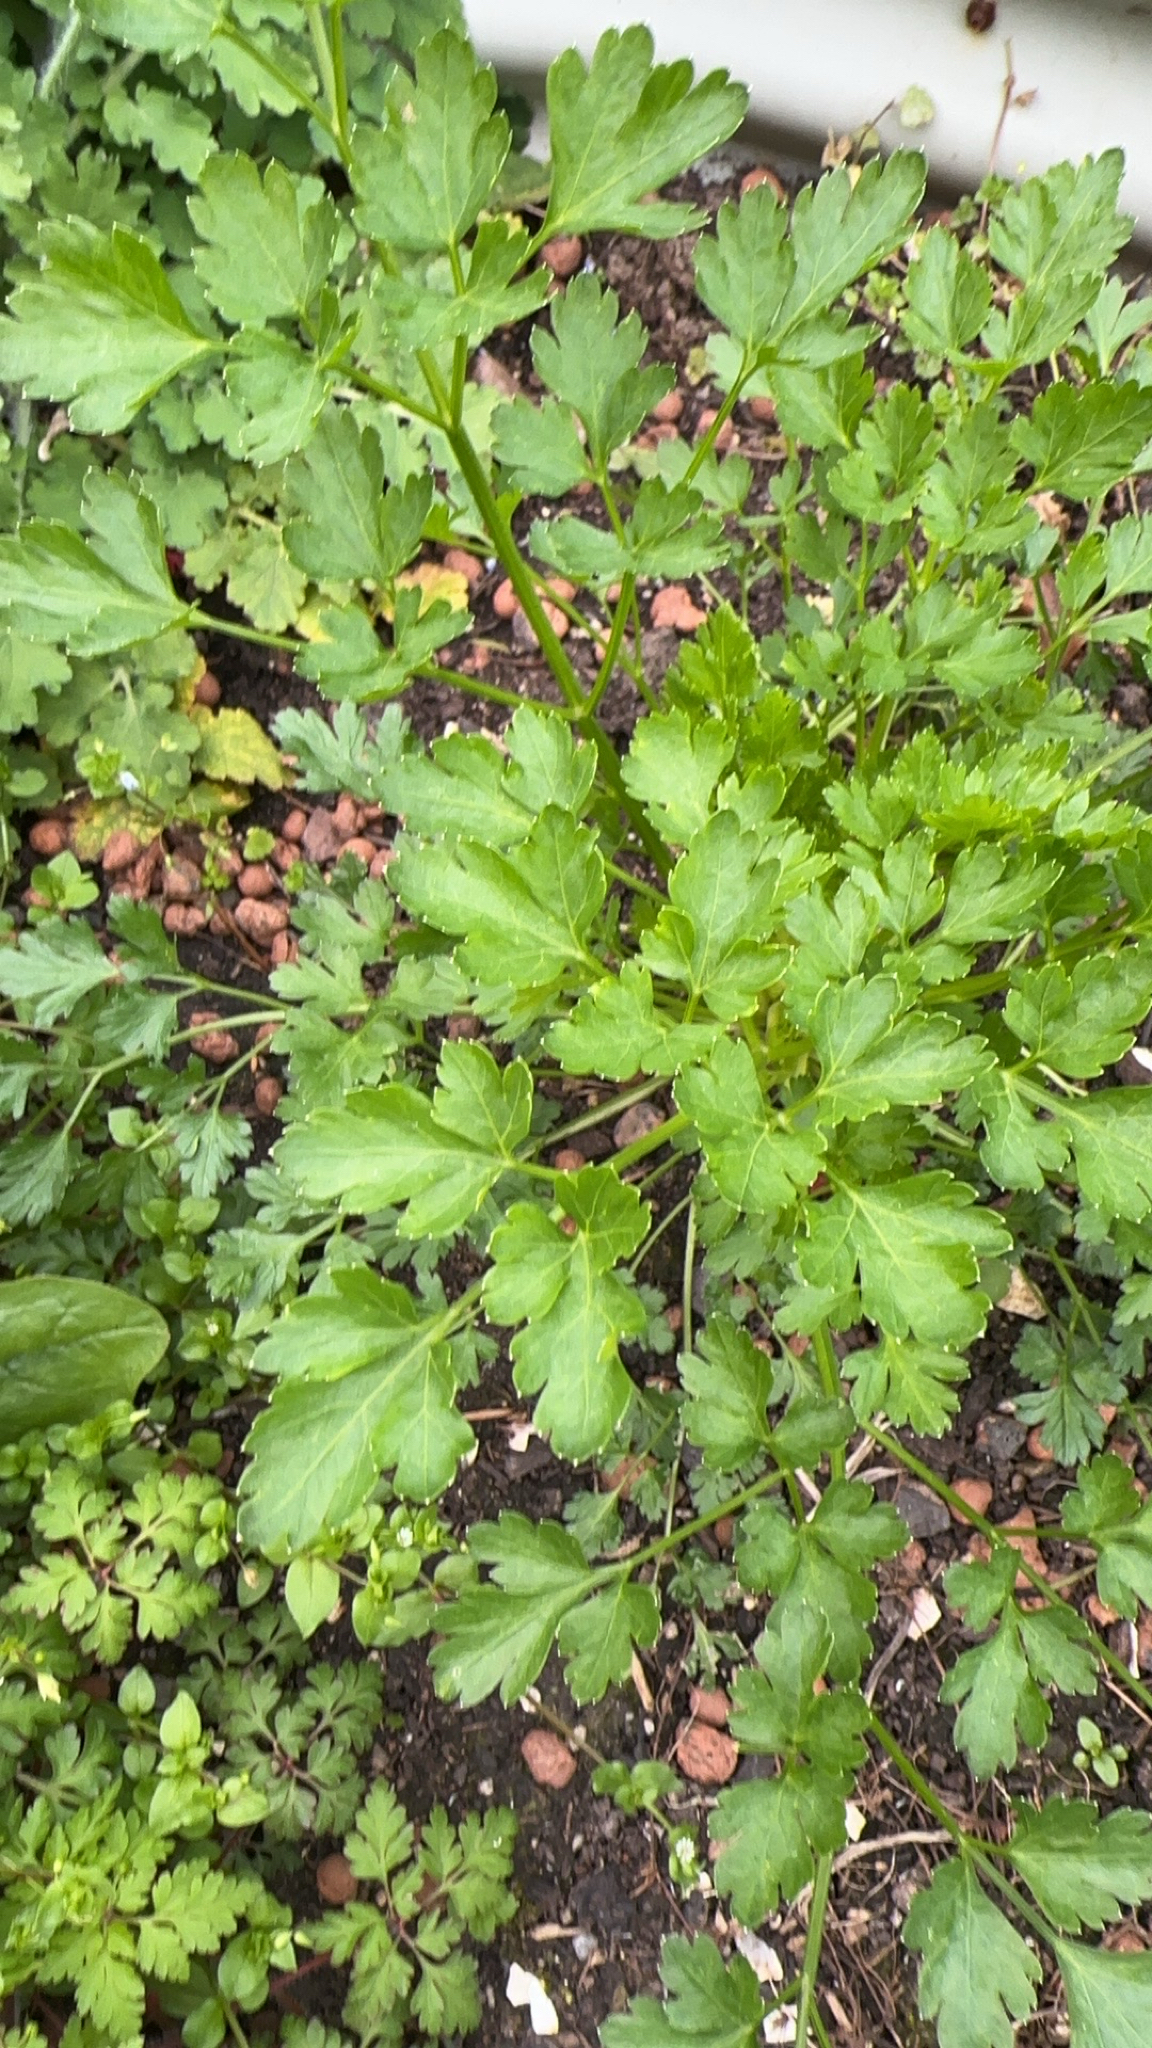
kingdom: Plantae
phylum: Tracheophyta
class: Magnoliopsida
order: Apiales
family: Apiaceae
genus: Petroselinum
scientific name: Petroselinum crispum
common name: Parsley
